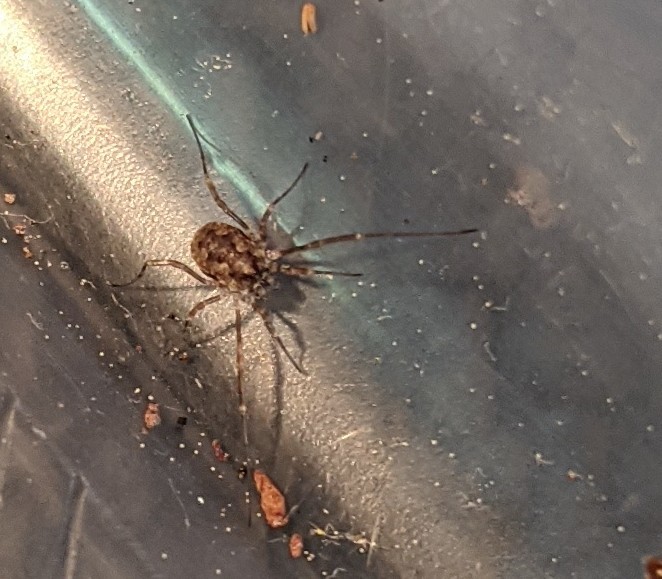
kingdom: Animalia
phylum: Arthropoda
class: Arachnida
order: Opiliones
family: Phalangiidae
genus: Odiellus
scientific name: Odiellus pictus
